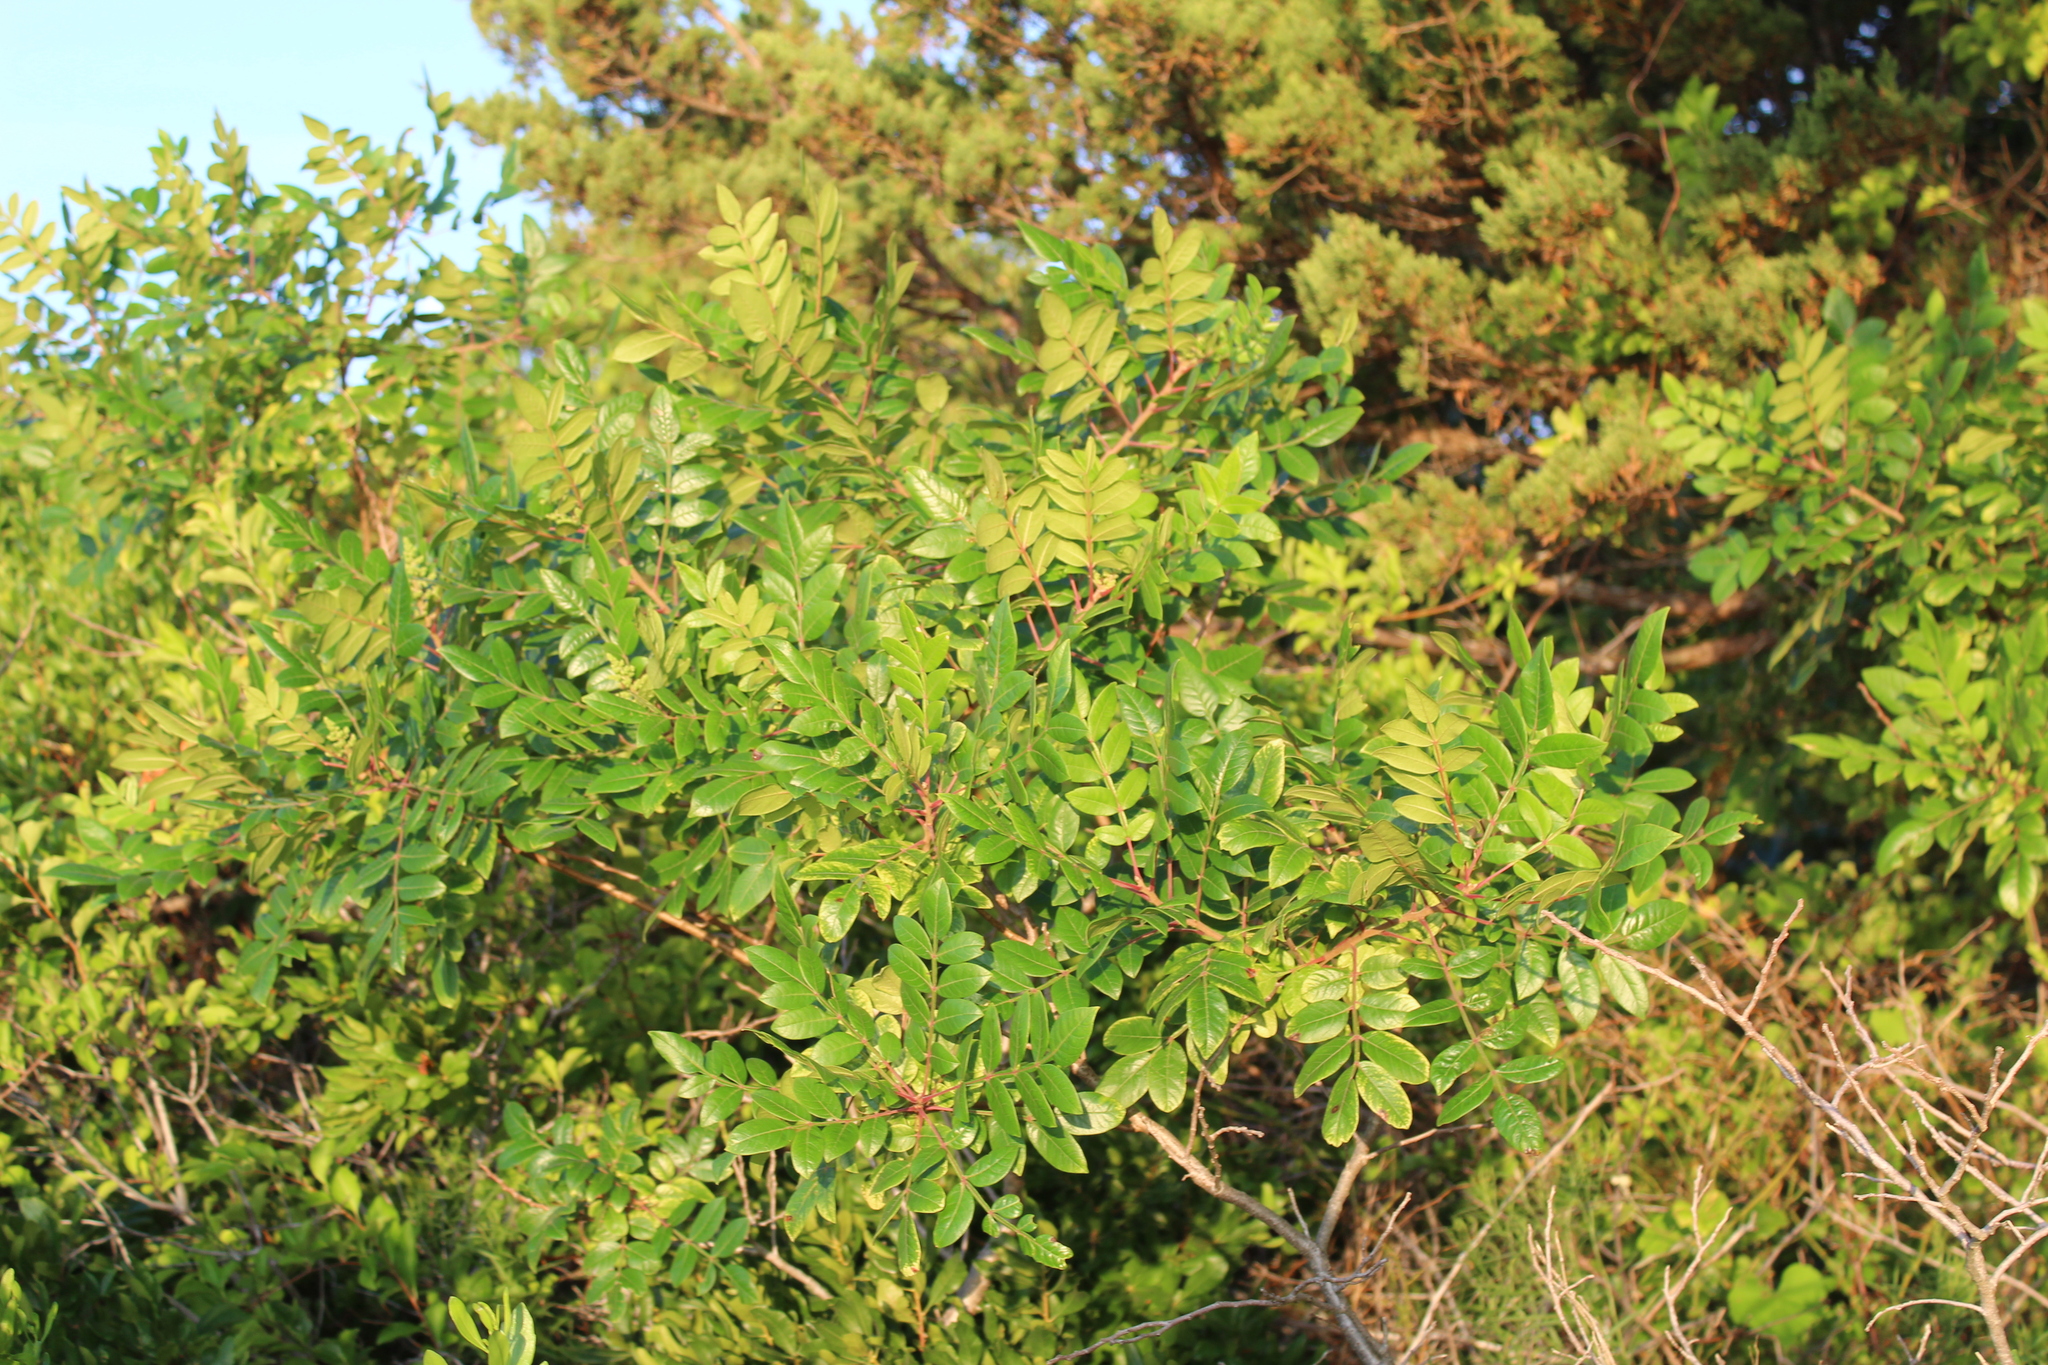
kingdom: Plantae
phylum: Tracheophyta
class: Magnoliopsida
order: Sapindales
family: Anacardiaceae
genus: Rhus
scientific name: Rhus copallina
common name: Shining sumac
